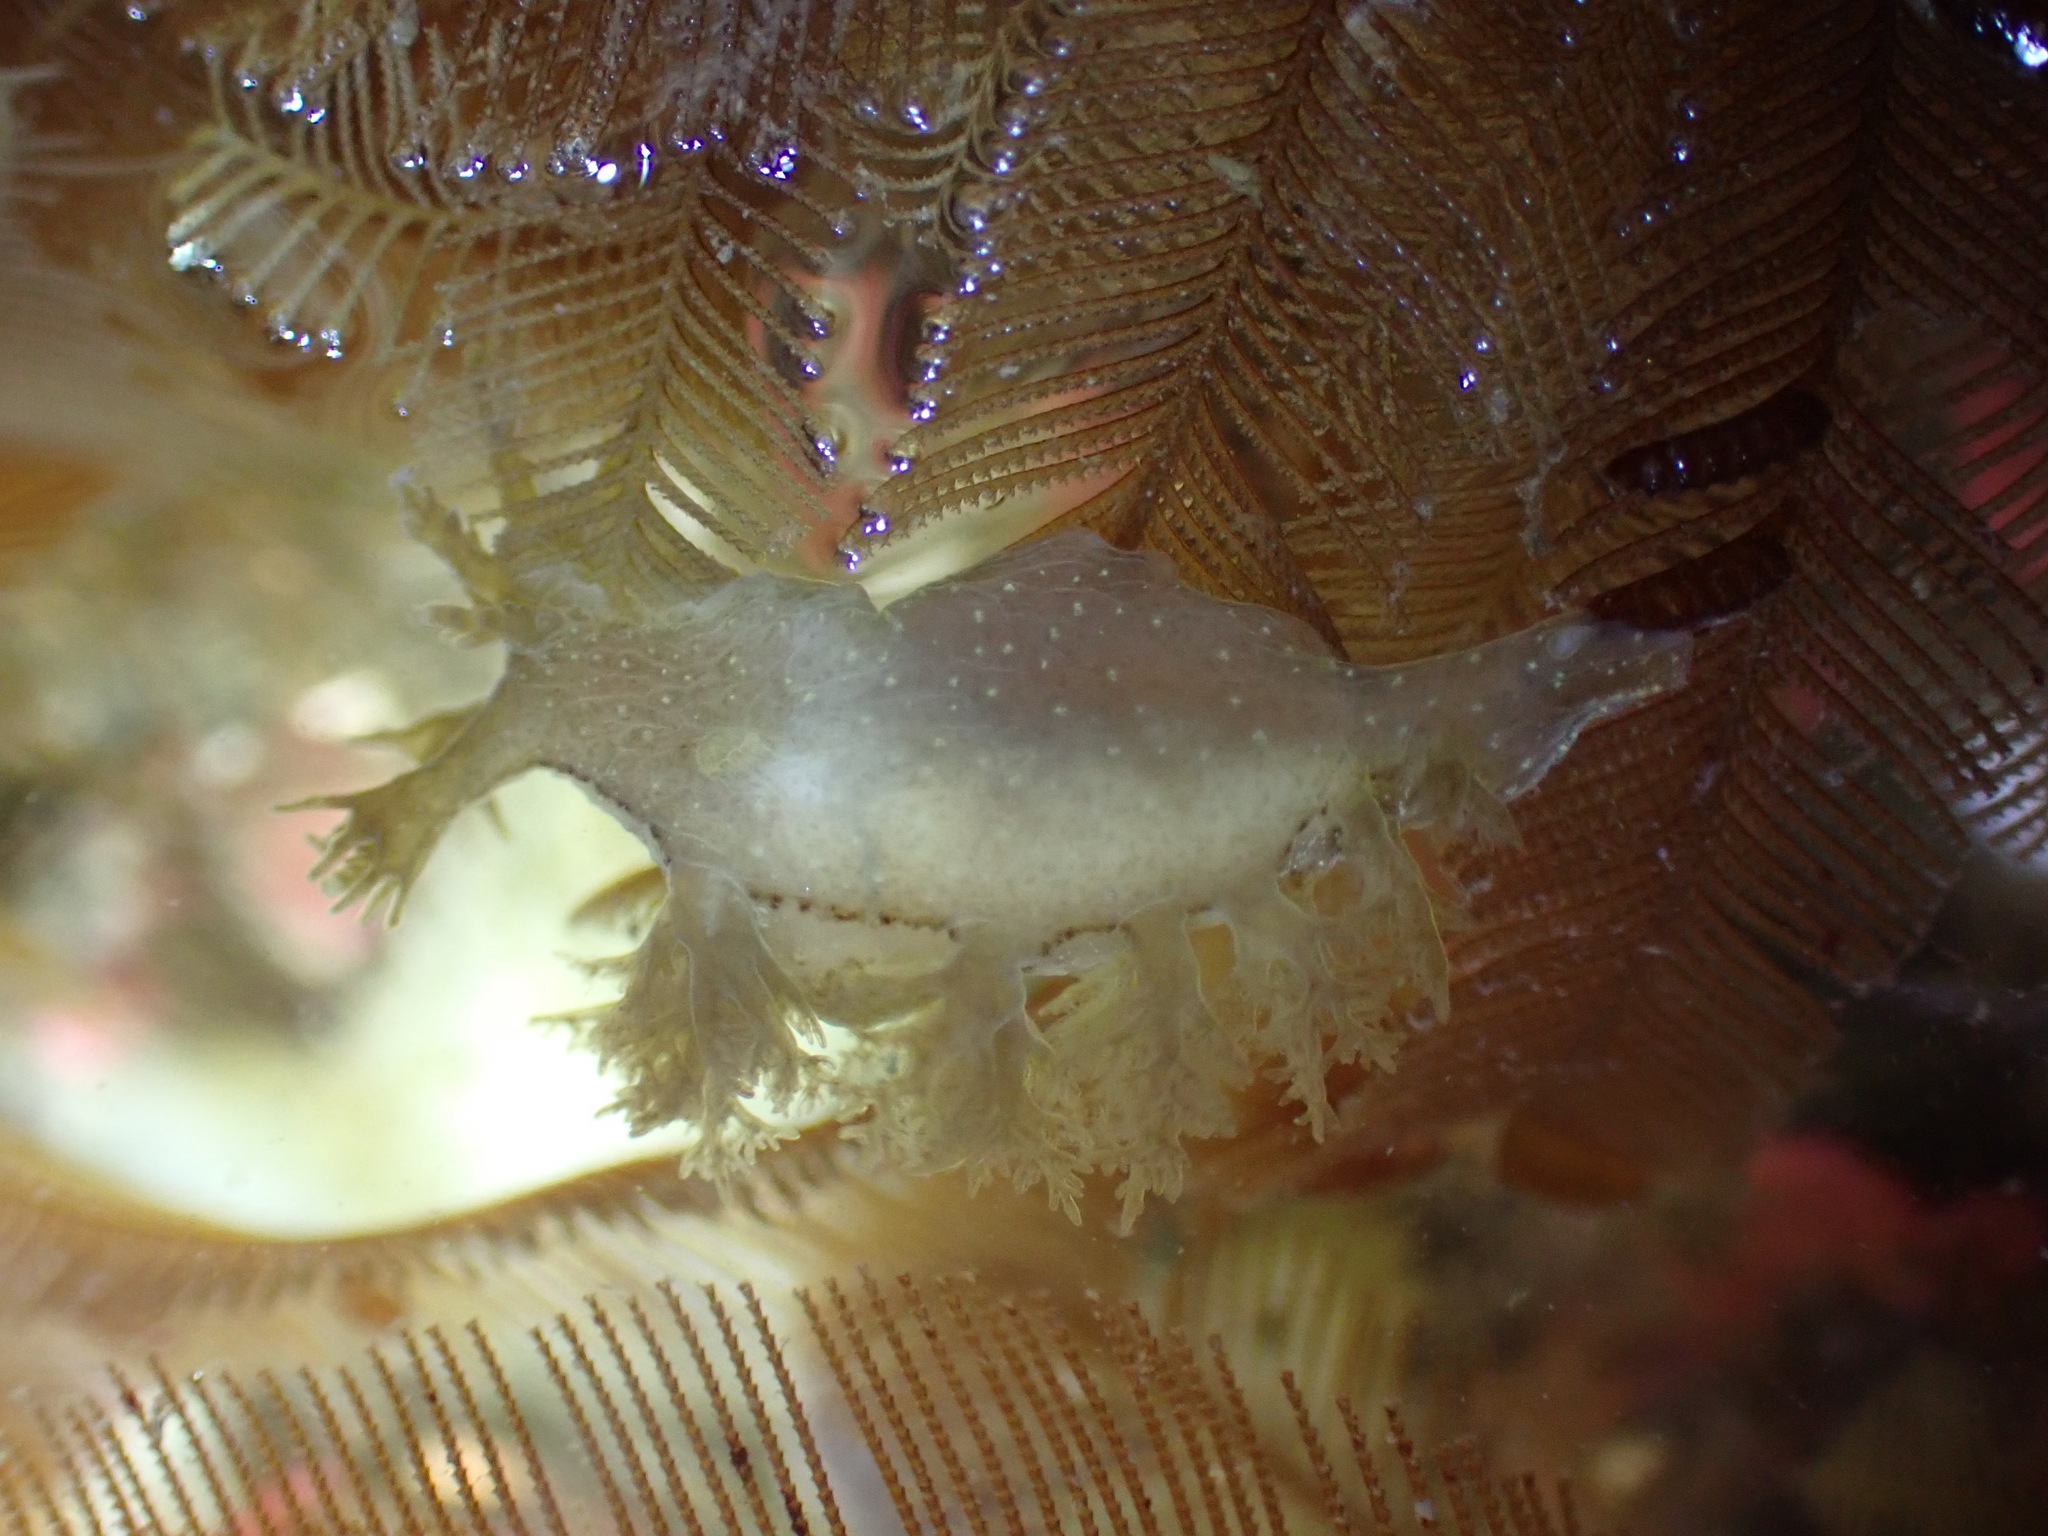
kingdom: Animalia
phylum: Mollusca
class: Gastropoda
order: Nudibranchia
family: Dendronotidae
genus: Dendronotus
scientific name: Dendronotus subramosus
